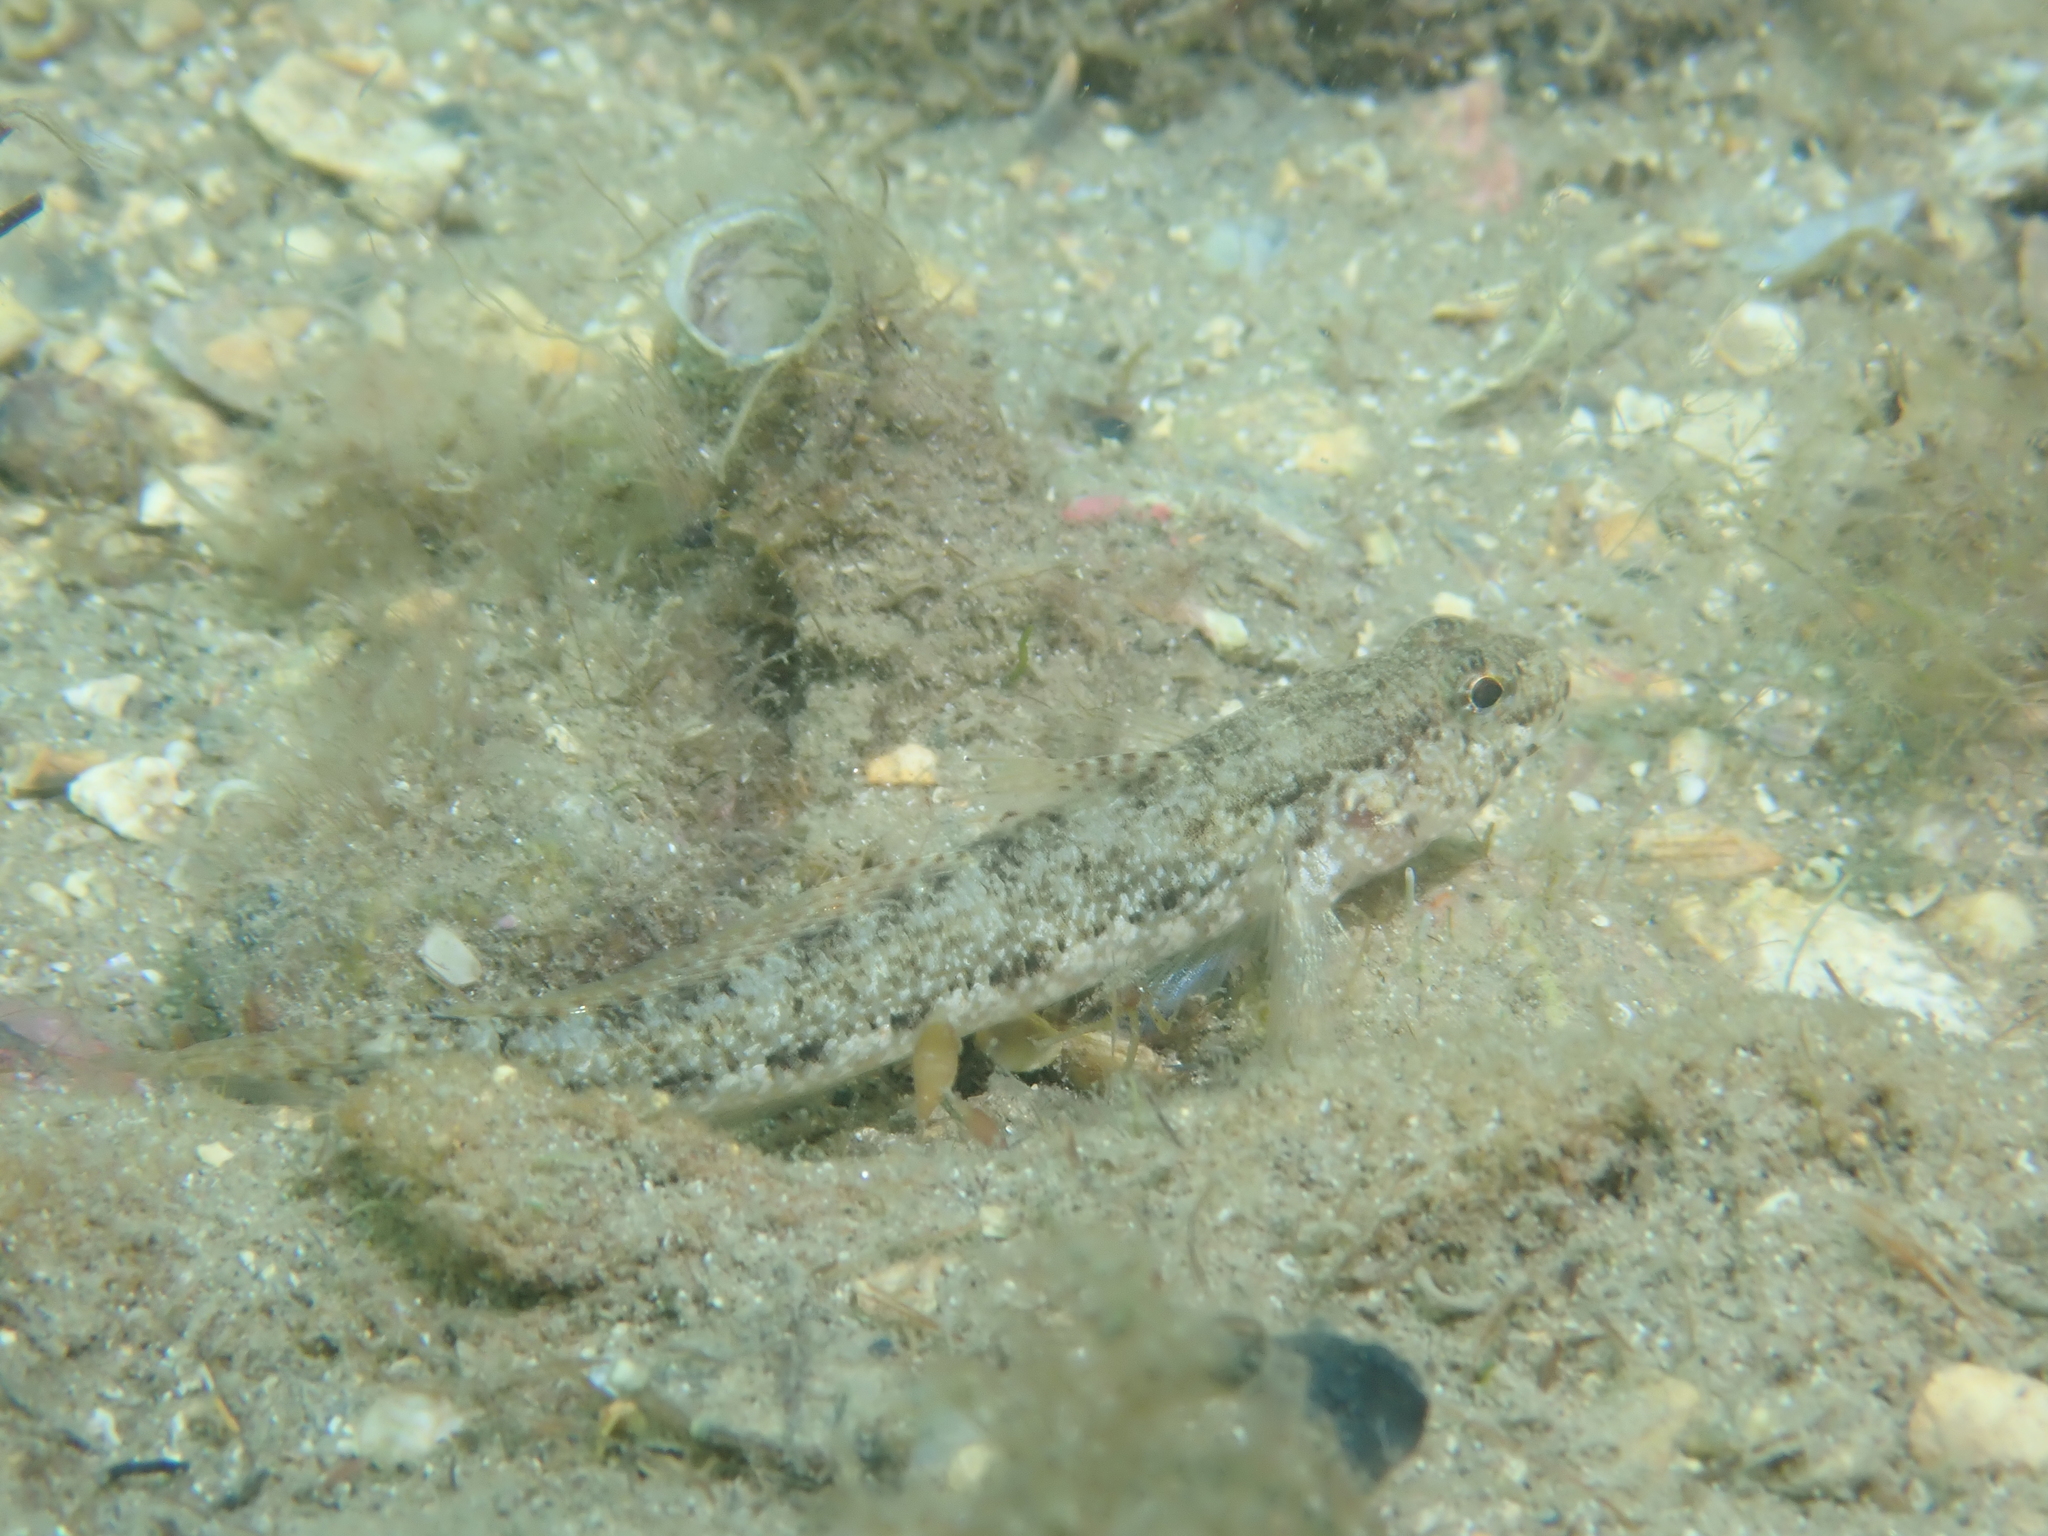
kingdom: Animalia
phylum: Chordata
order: Perciformes
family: Gobiidae
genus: Gobius
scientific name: Gobius couchi
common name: Couch's goby
